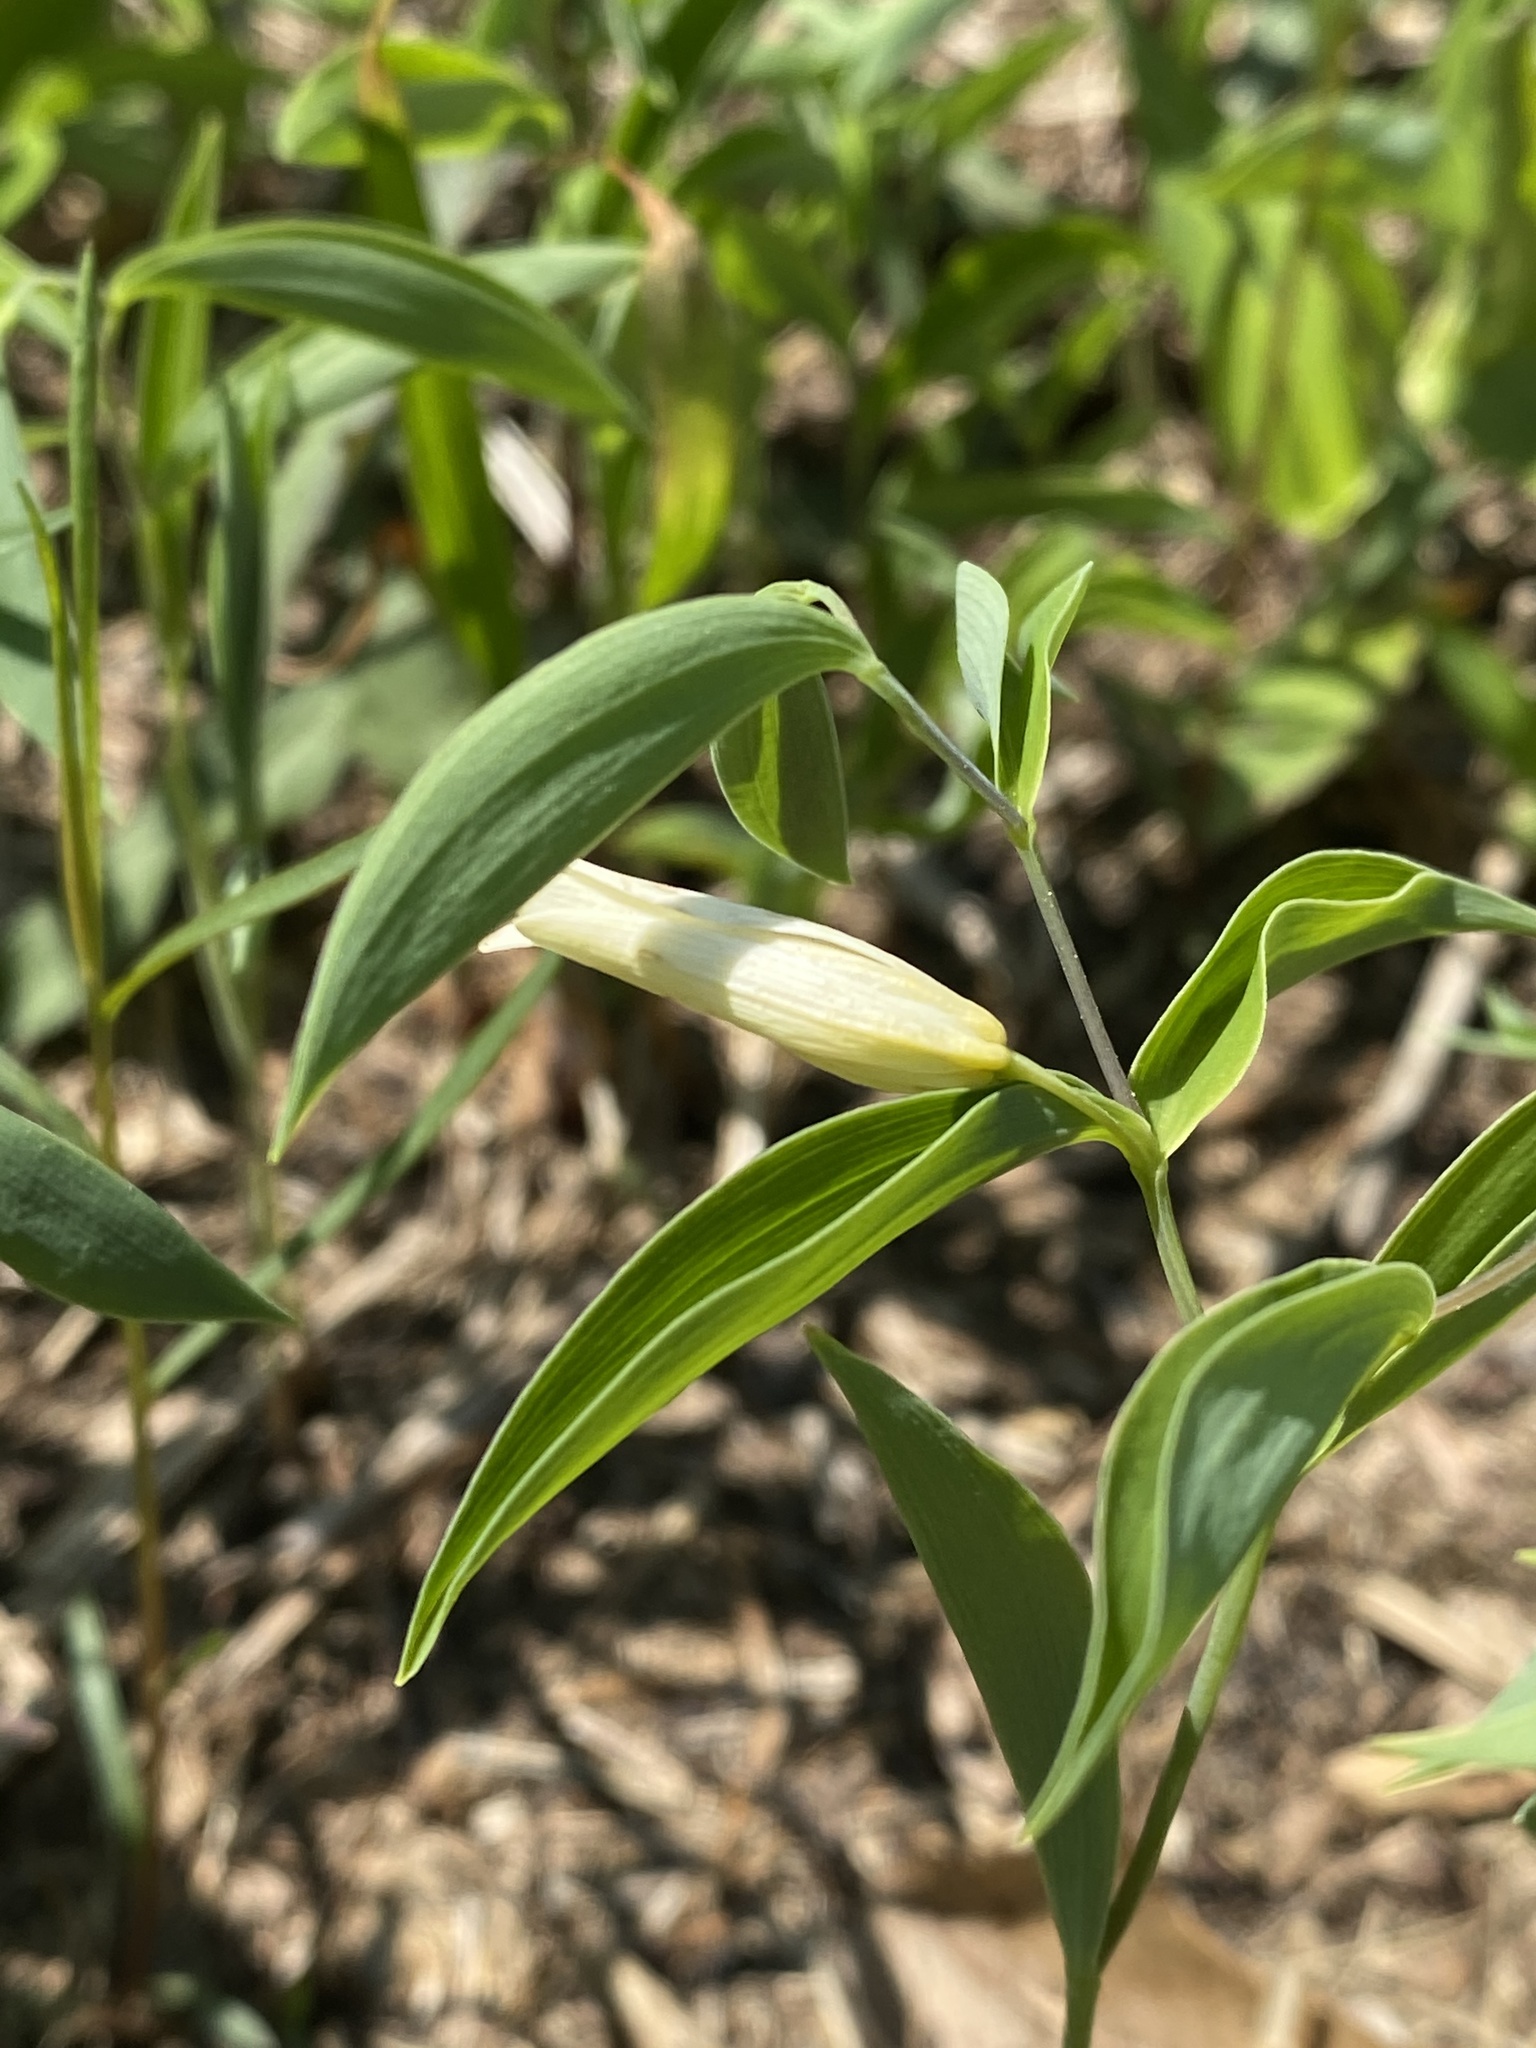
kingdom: Plantae
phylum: Tracheophyta
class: Liliopsida
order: Liliales
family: Colchicaceae
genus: Uvularia
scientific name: Uvularia sessilifolia
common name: Straw-lily
